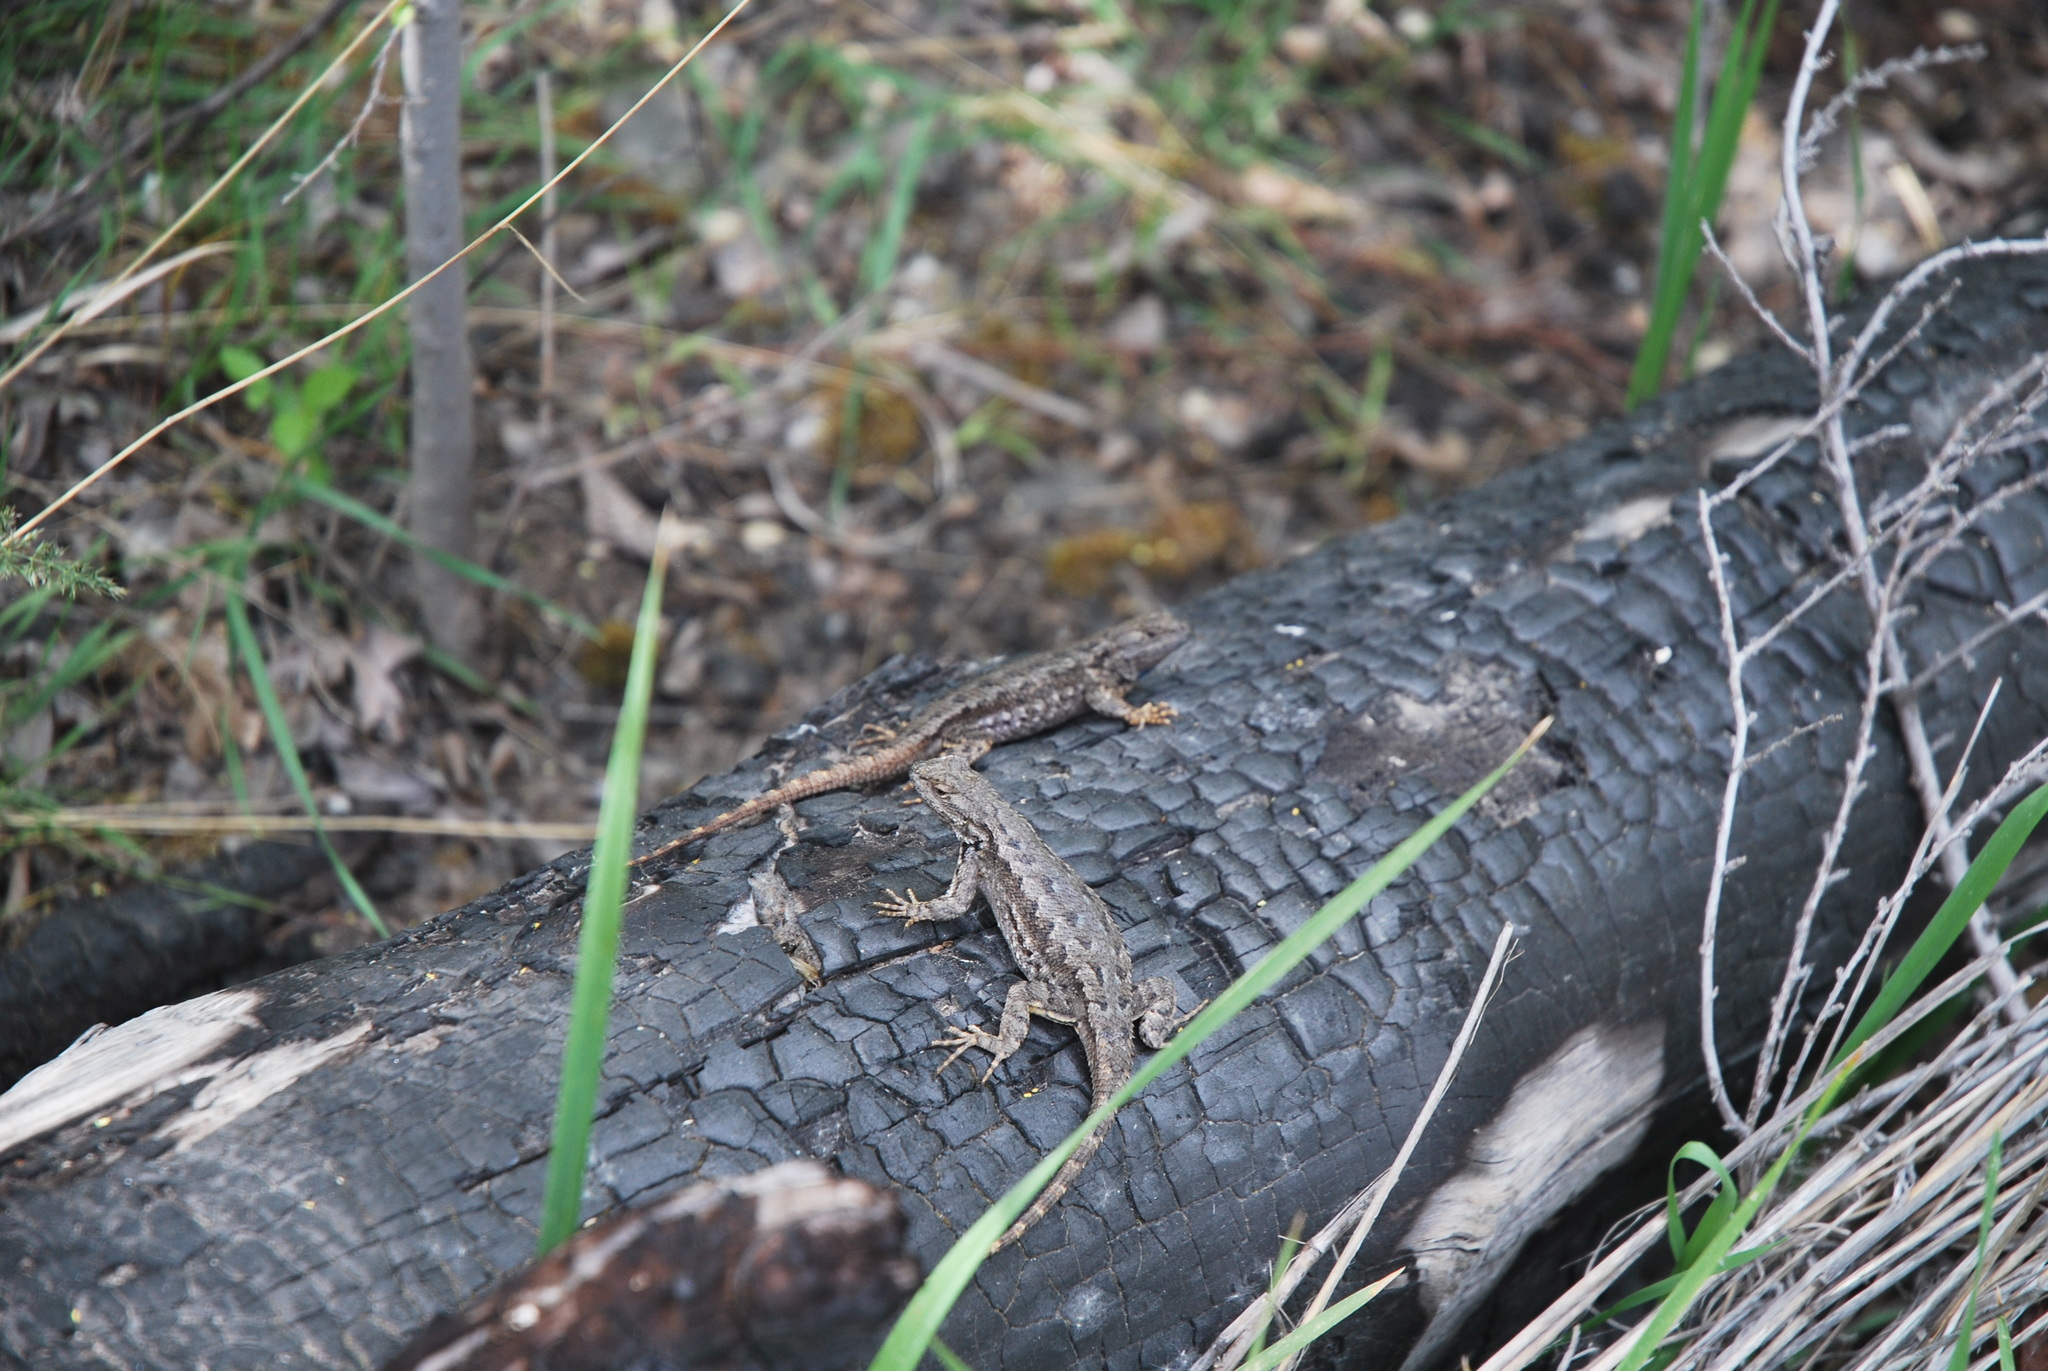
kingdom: Animalia
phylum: Chordata
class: Squamata
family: Phrynosomatidae
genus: Sceloporus
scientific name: Sceloporus occidentalis
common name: Western fence lizard
